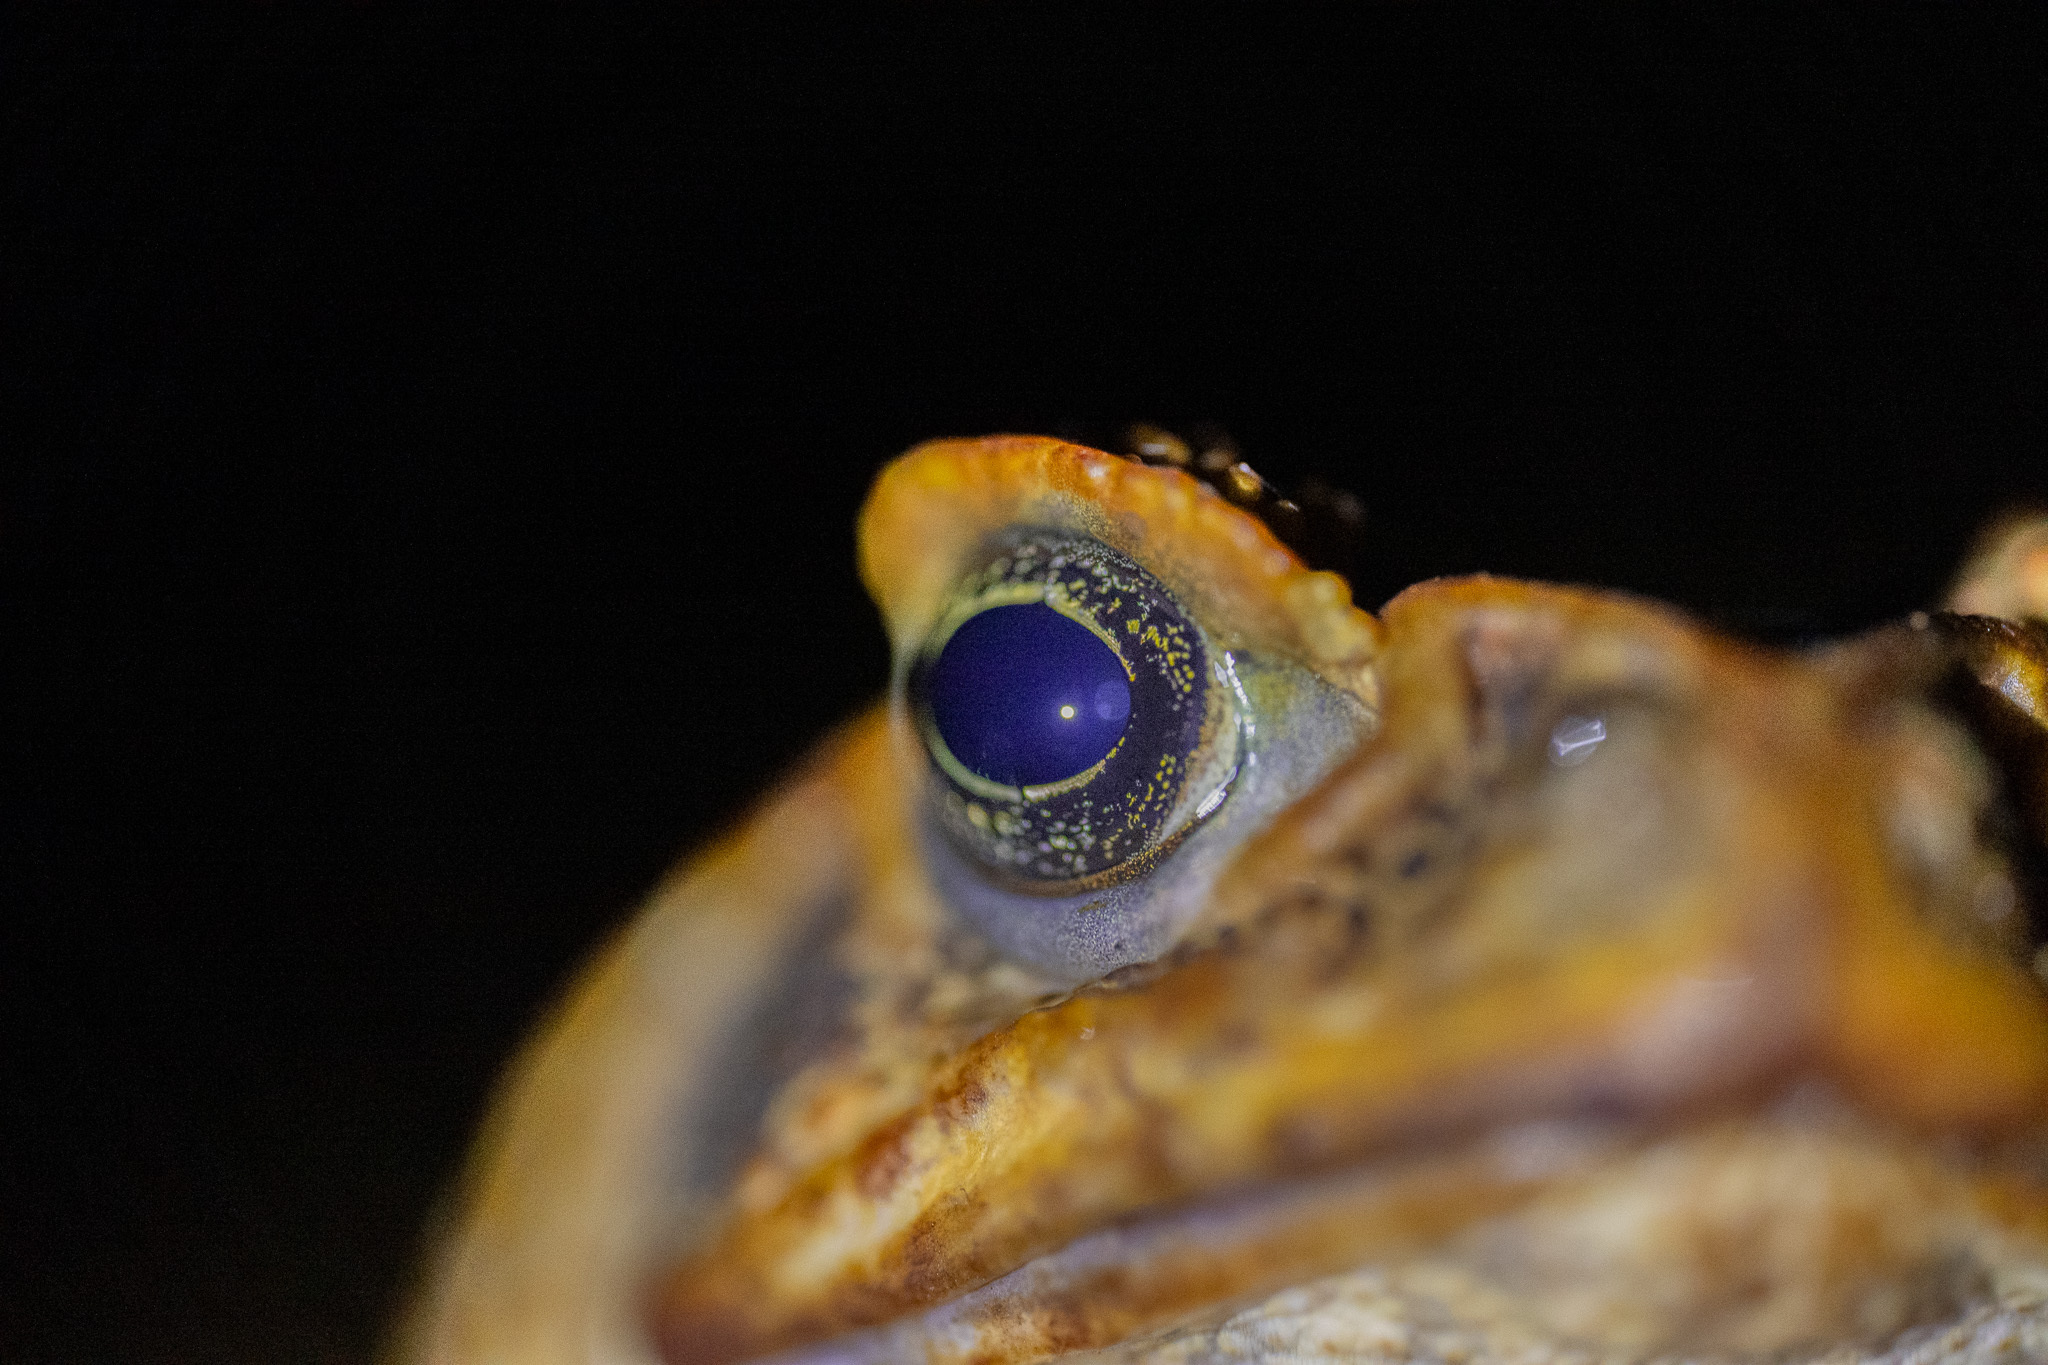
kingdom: Animalia
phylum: Chordata
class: Amphibia
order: Anura
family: Bufonidae
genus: Rhinella
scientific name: Rhinella marina
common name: Cane toad
